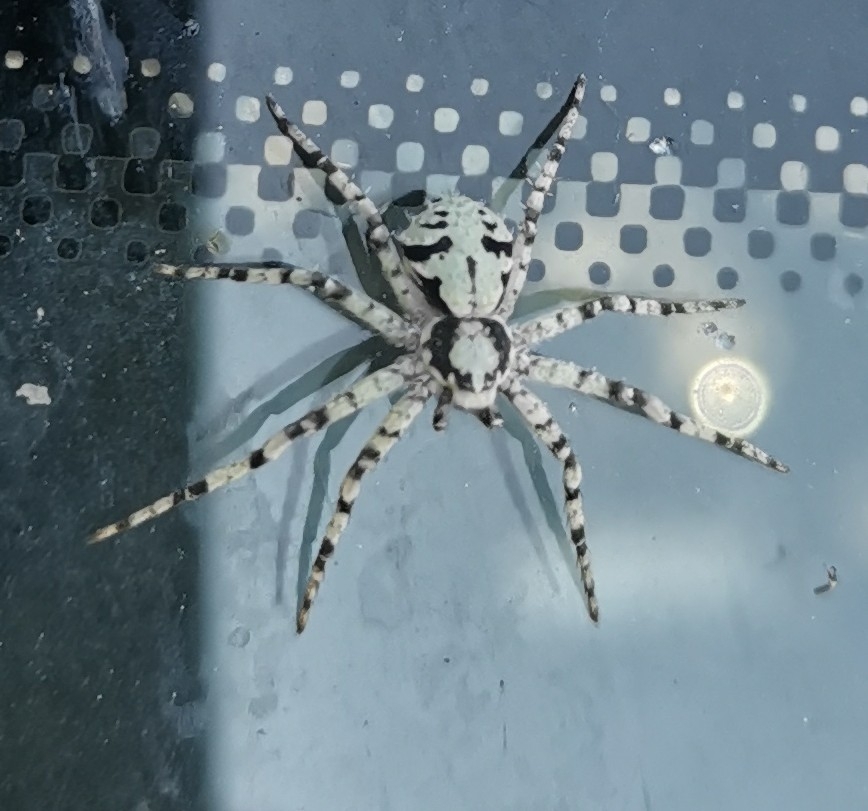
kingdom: Animalia
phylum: Arthropoda
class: Arachnida
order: Araneae
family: Philodromidae
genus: Philodromus
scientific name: Philodromus margaritatus
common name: Lichen running-spider
